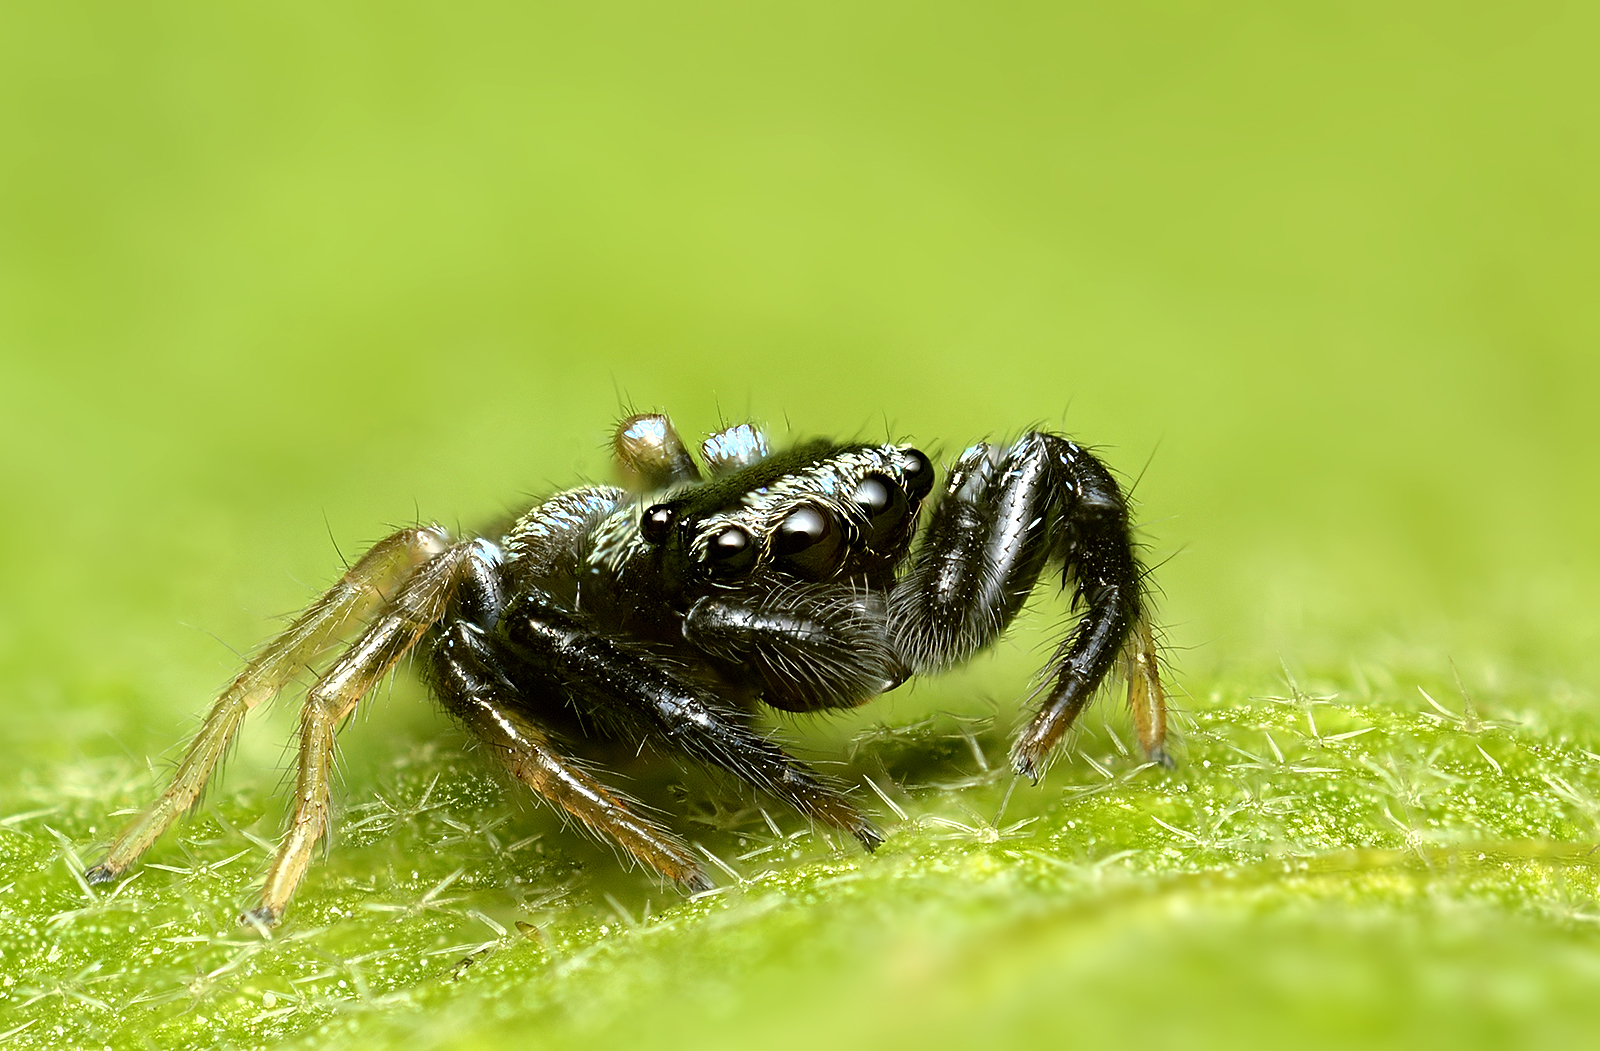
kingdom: Animalia
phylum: Arthropoda
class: Arachnida
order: Araneae
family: Salticidae
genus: Thiania
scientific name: Thiania bhamoensis
